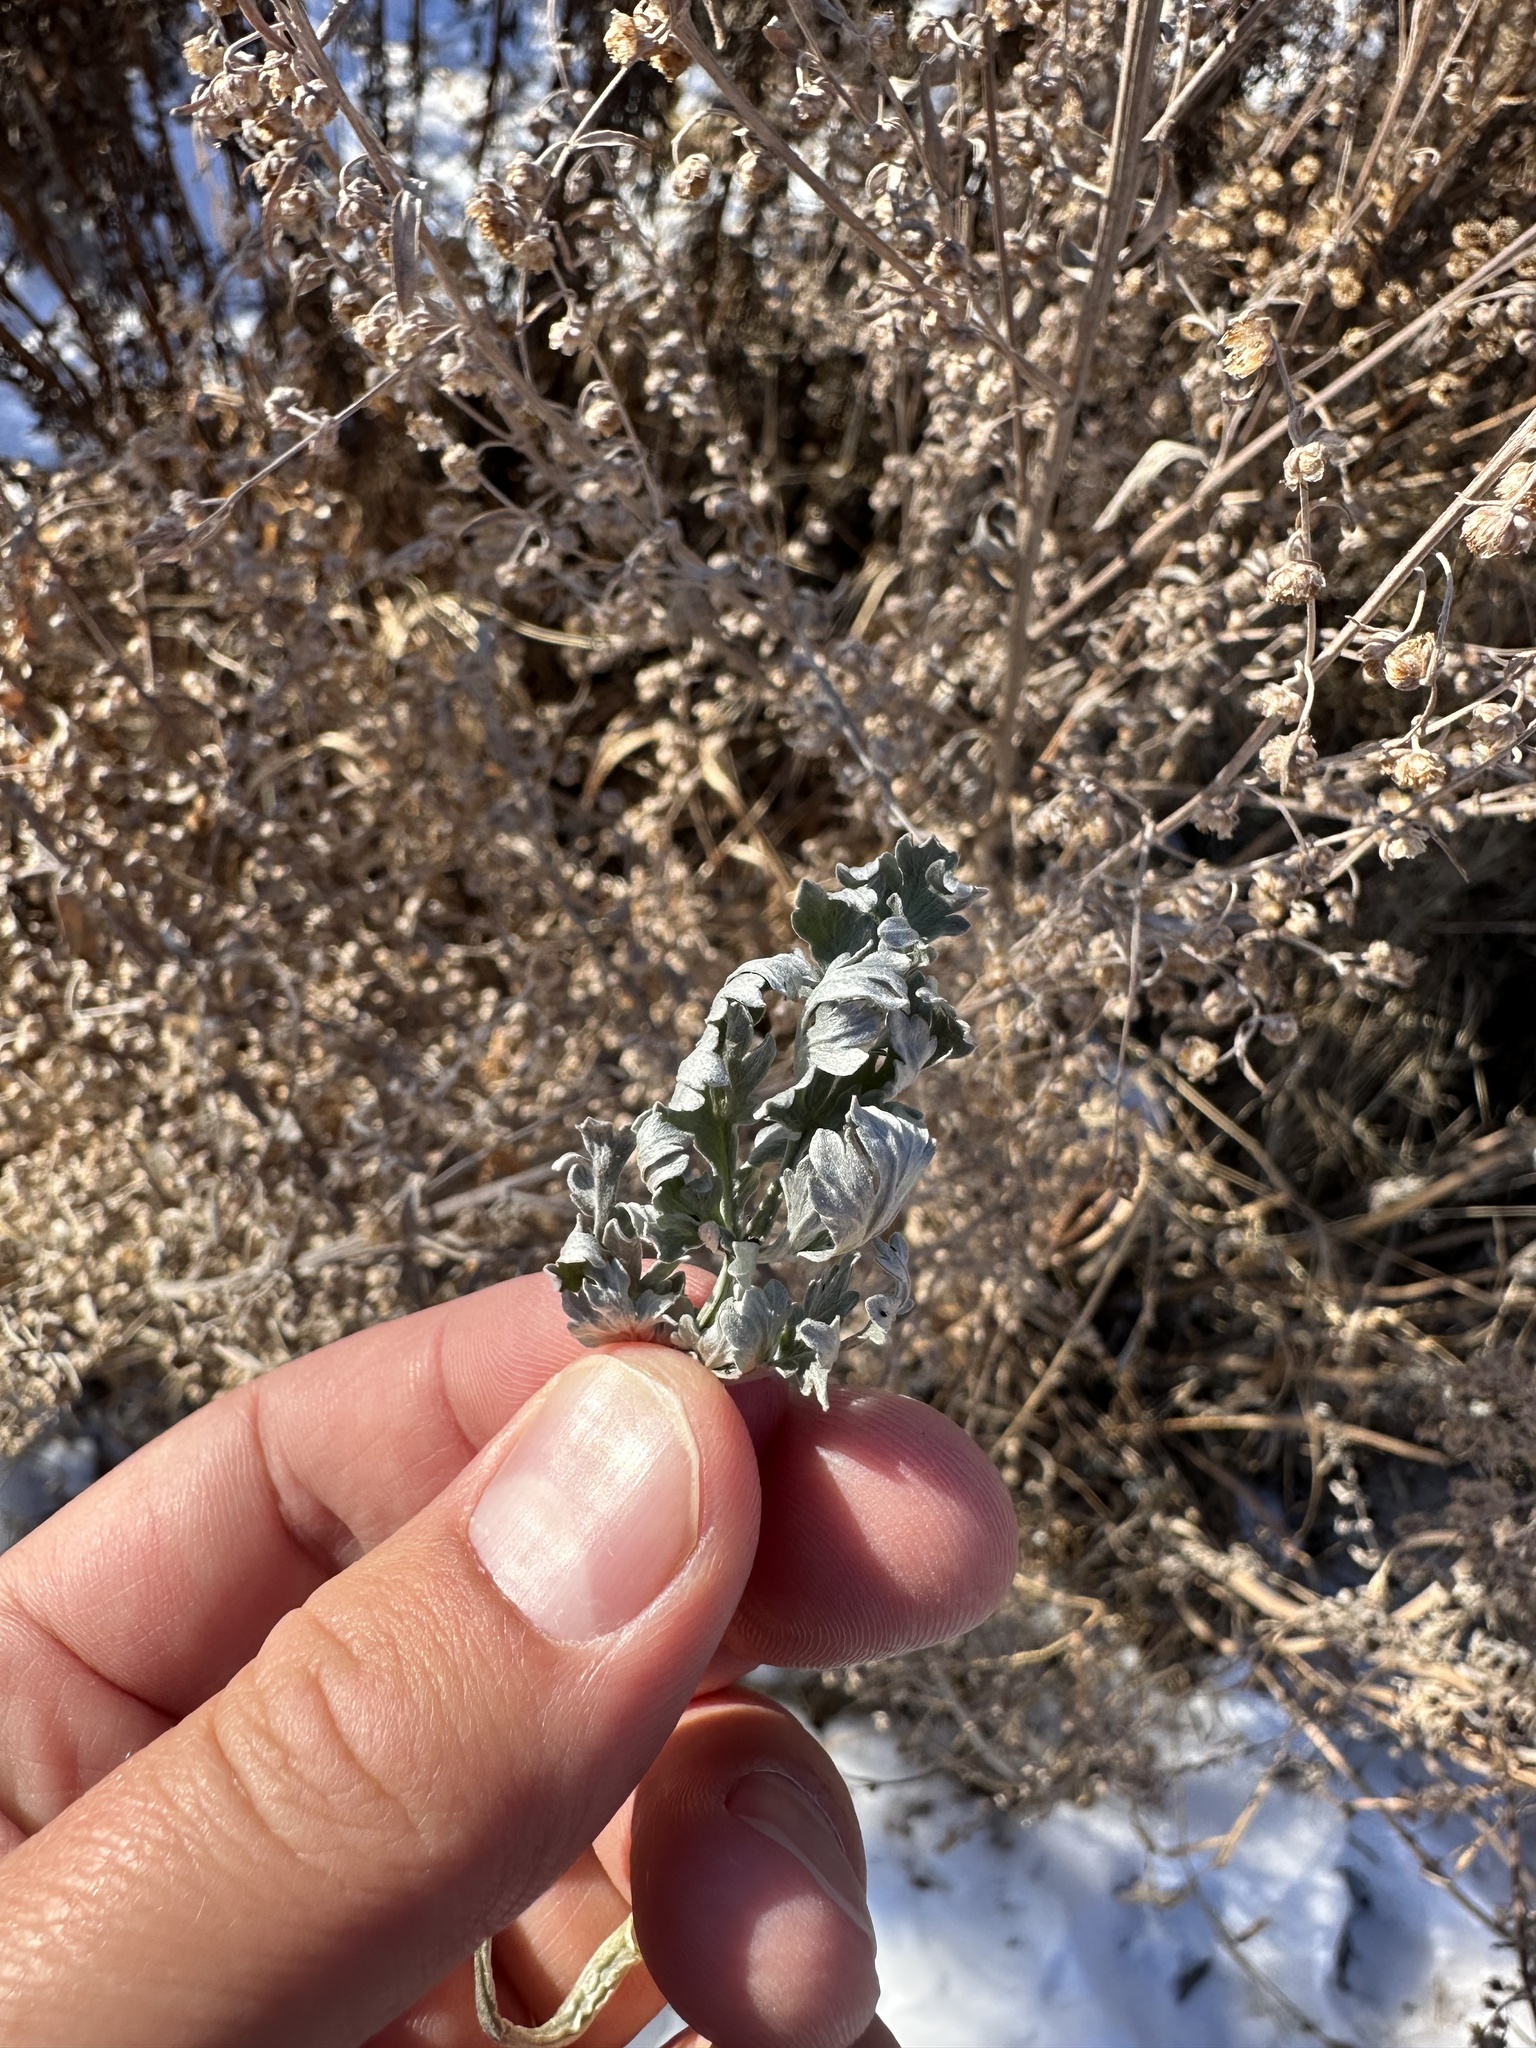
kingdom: Plantae
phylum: Tracheophyta
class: Magnoliopsida
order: Asterales
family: Asteraceae
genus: Artemisia
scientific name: Artemisia absinthium
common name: Wormwood
